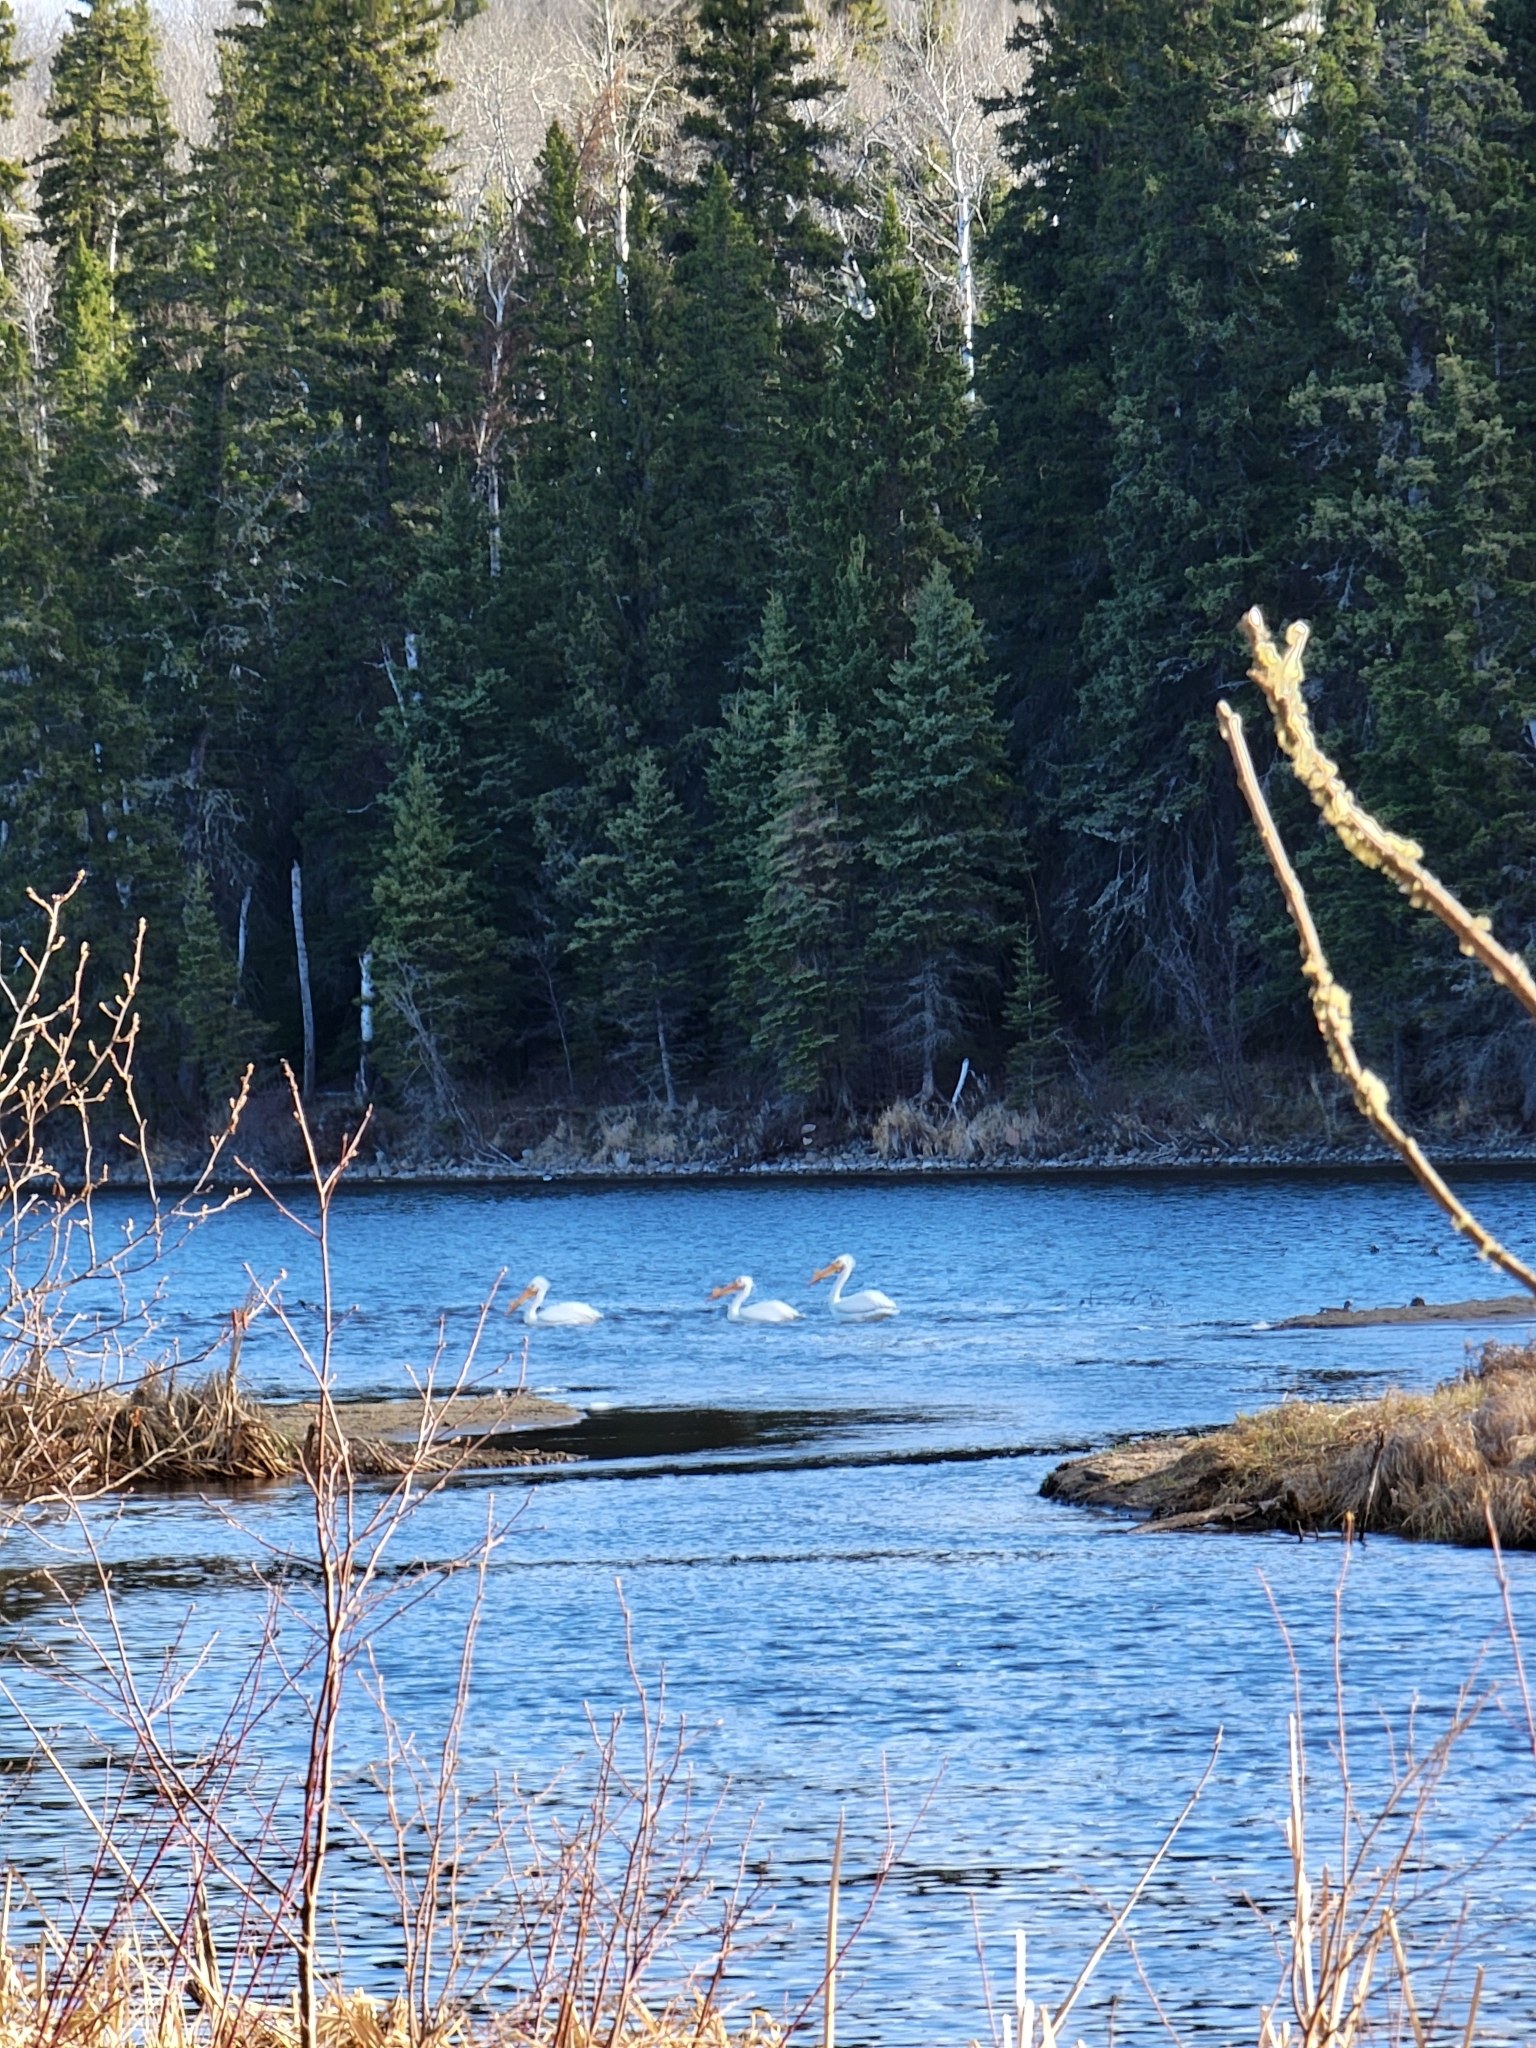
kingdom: Animalia
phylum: Chordata
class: Aves
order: Pelecaniformes
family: Pelecanidae
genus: Pelecanus
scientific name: Pelecanus erythrorhynchos
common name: American white pelican
